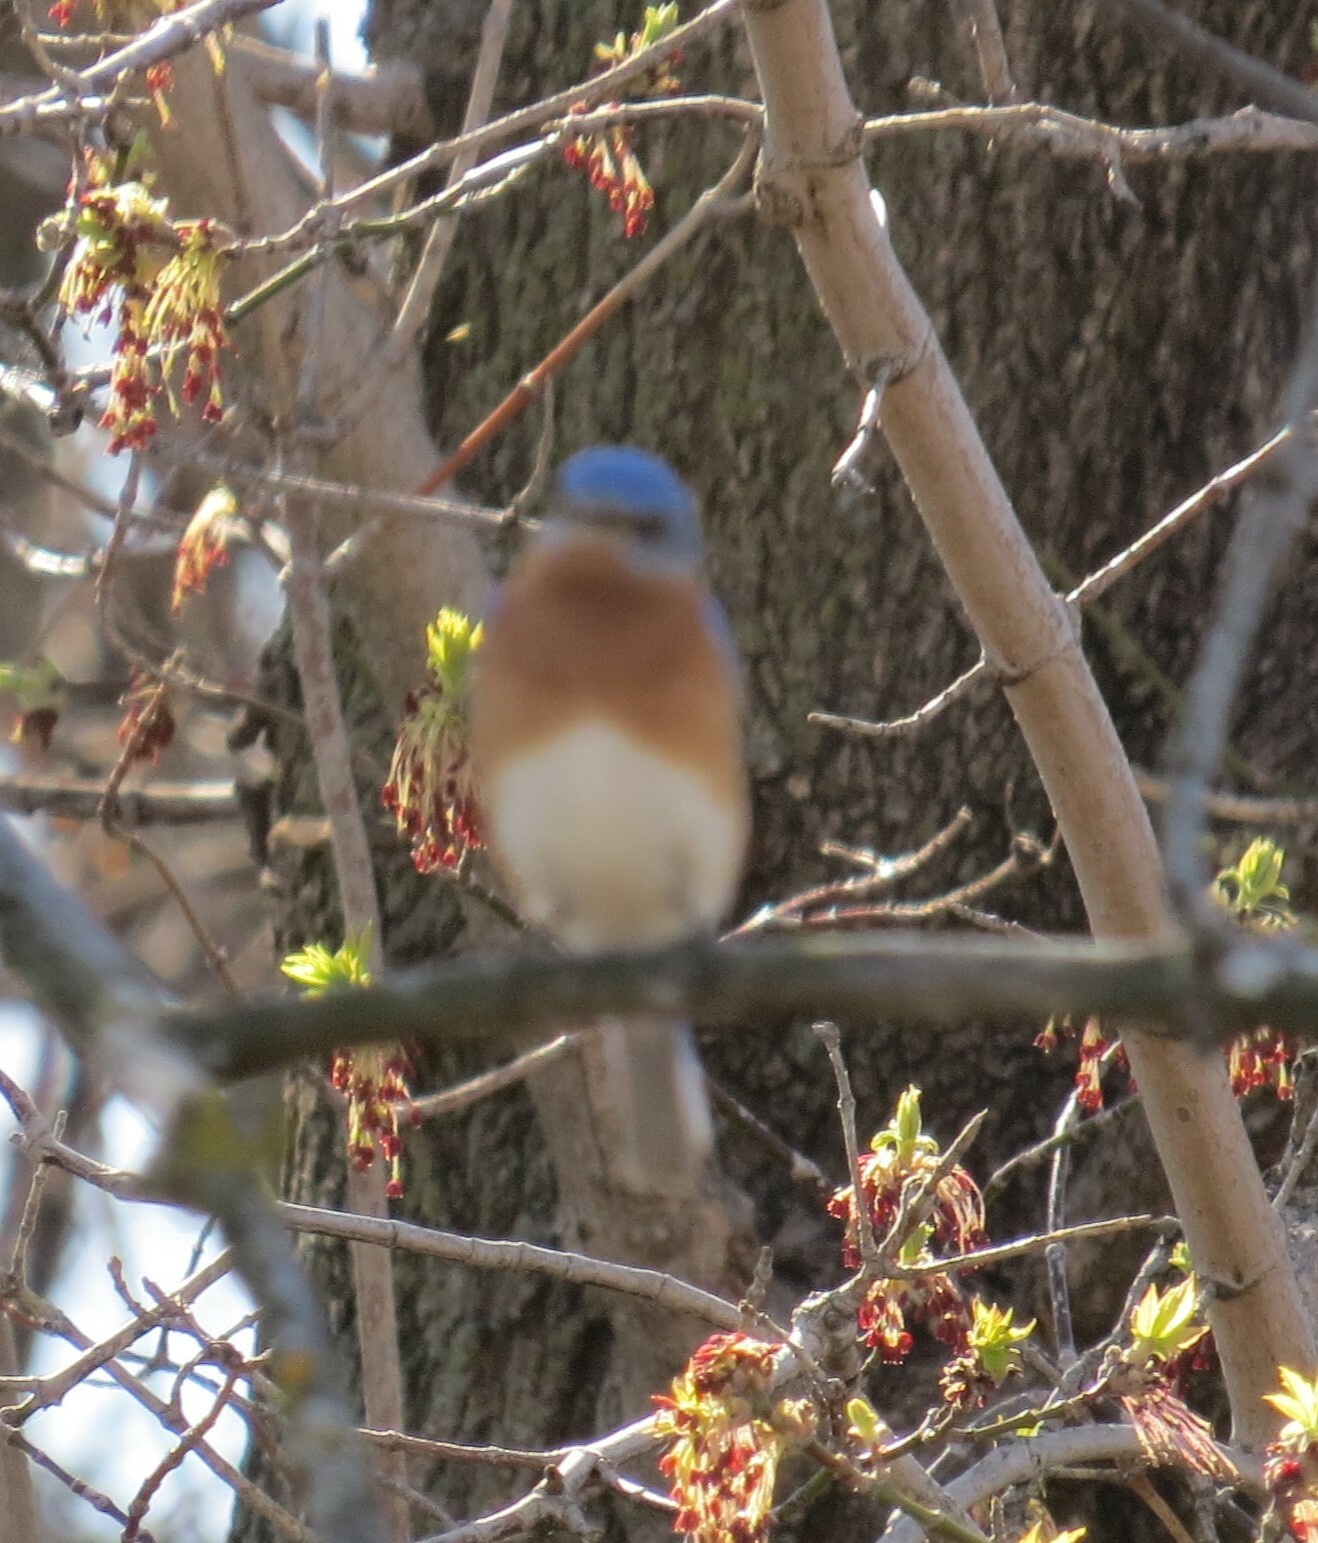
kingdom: Animalia
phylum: Chordata
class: Aves
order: Passeriformes
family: Turdidae
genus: Sialia
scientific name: Sialia sialis
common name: Eastern bluebird
